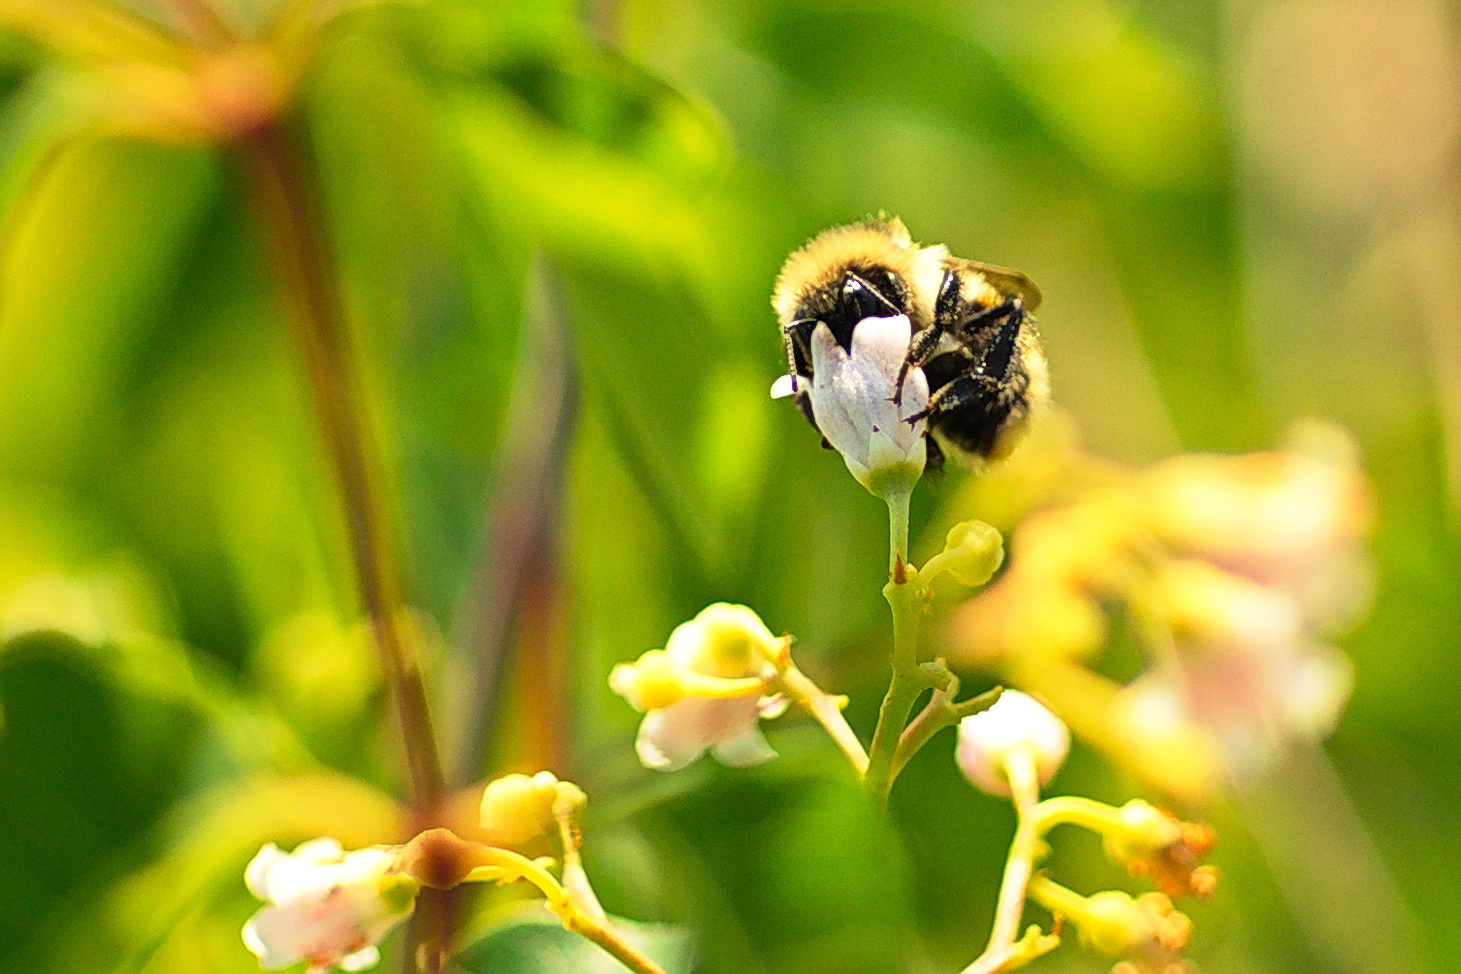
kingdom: Animalia
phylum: Arthropoda
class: Insecta
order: Hymenoptera
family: Apidae
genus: Bombus
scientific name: Bombus
